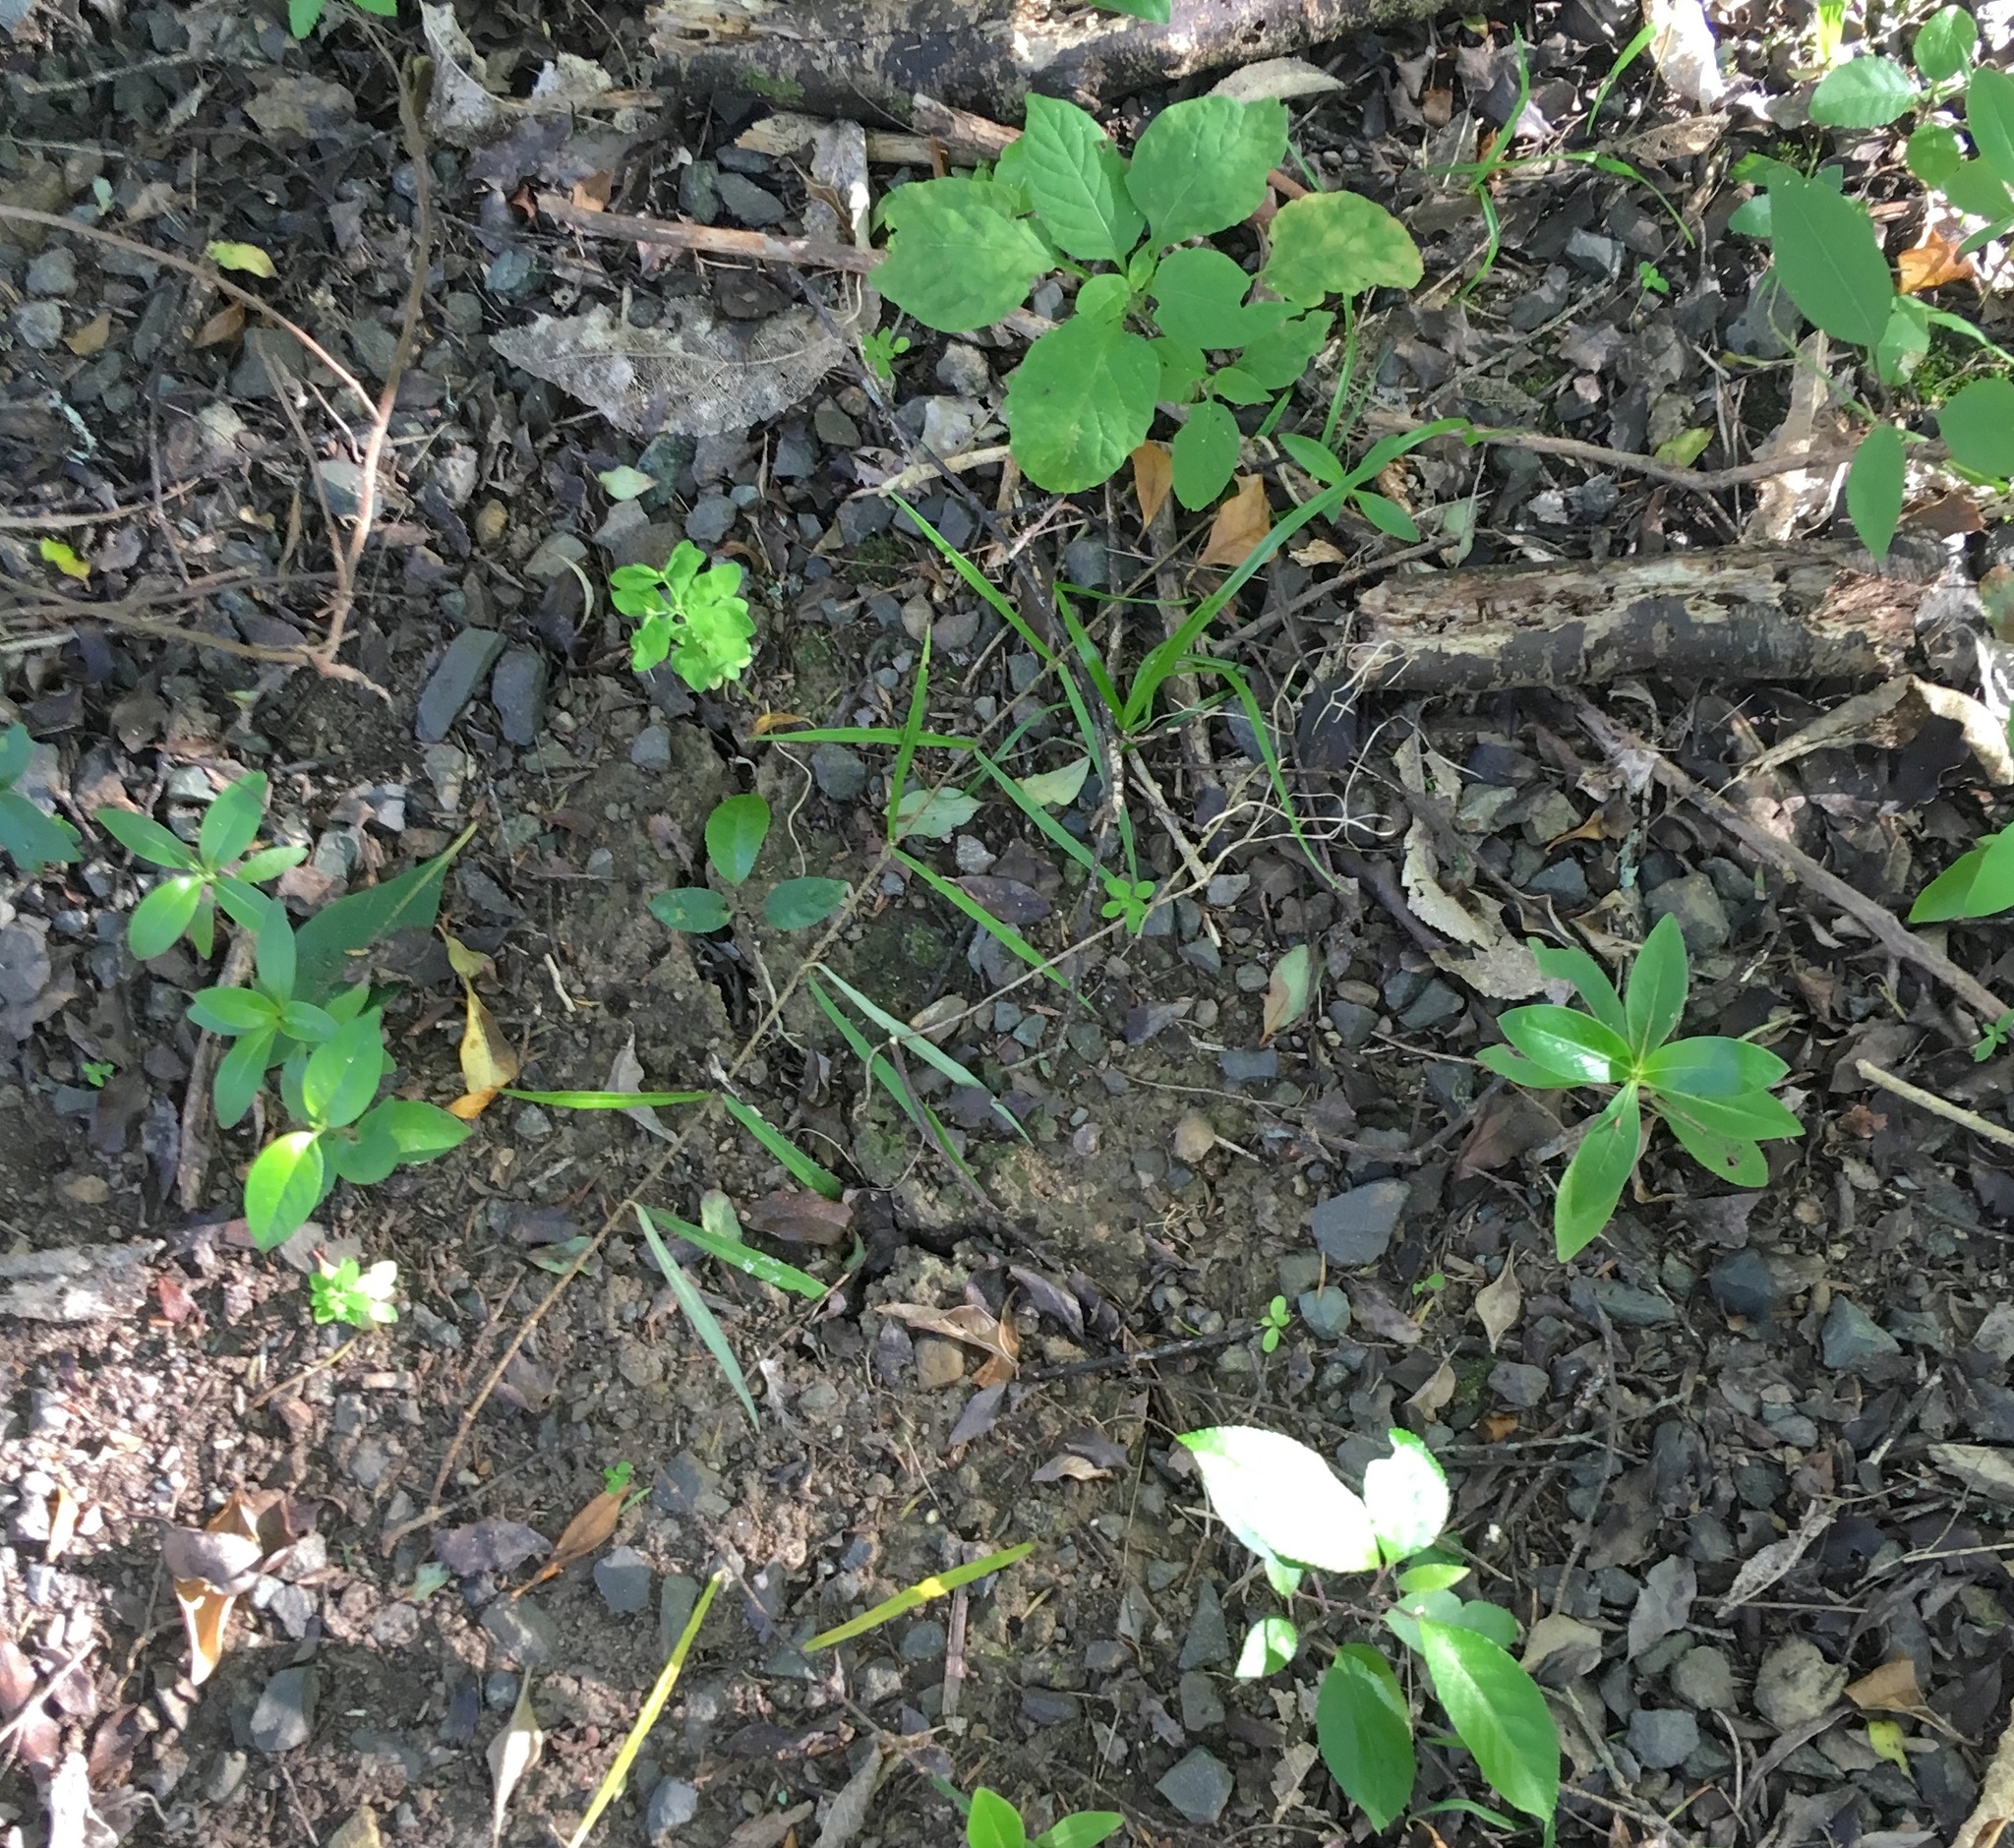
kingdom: Plantae
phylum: Tracheophyta
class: Magnoliopsida
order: Gentianales
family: Apocynaceae
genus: Parsonsia
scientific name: Parsonsia heterophylla
